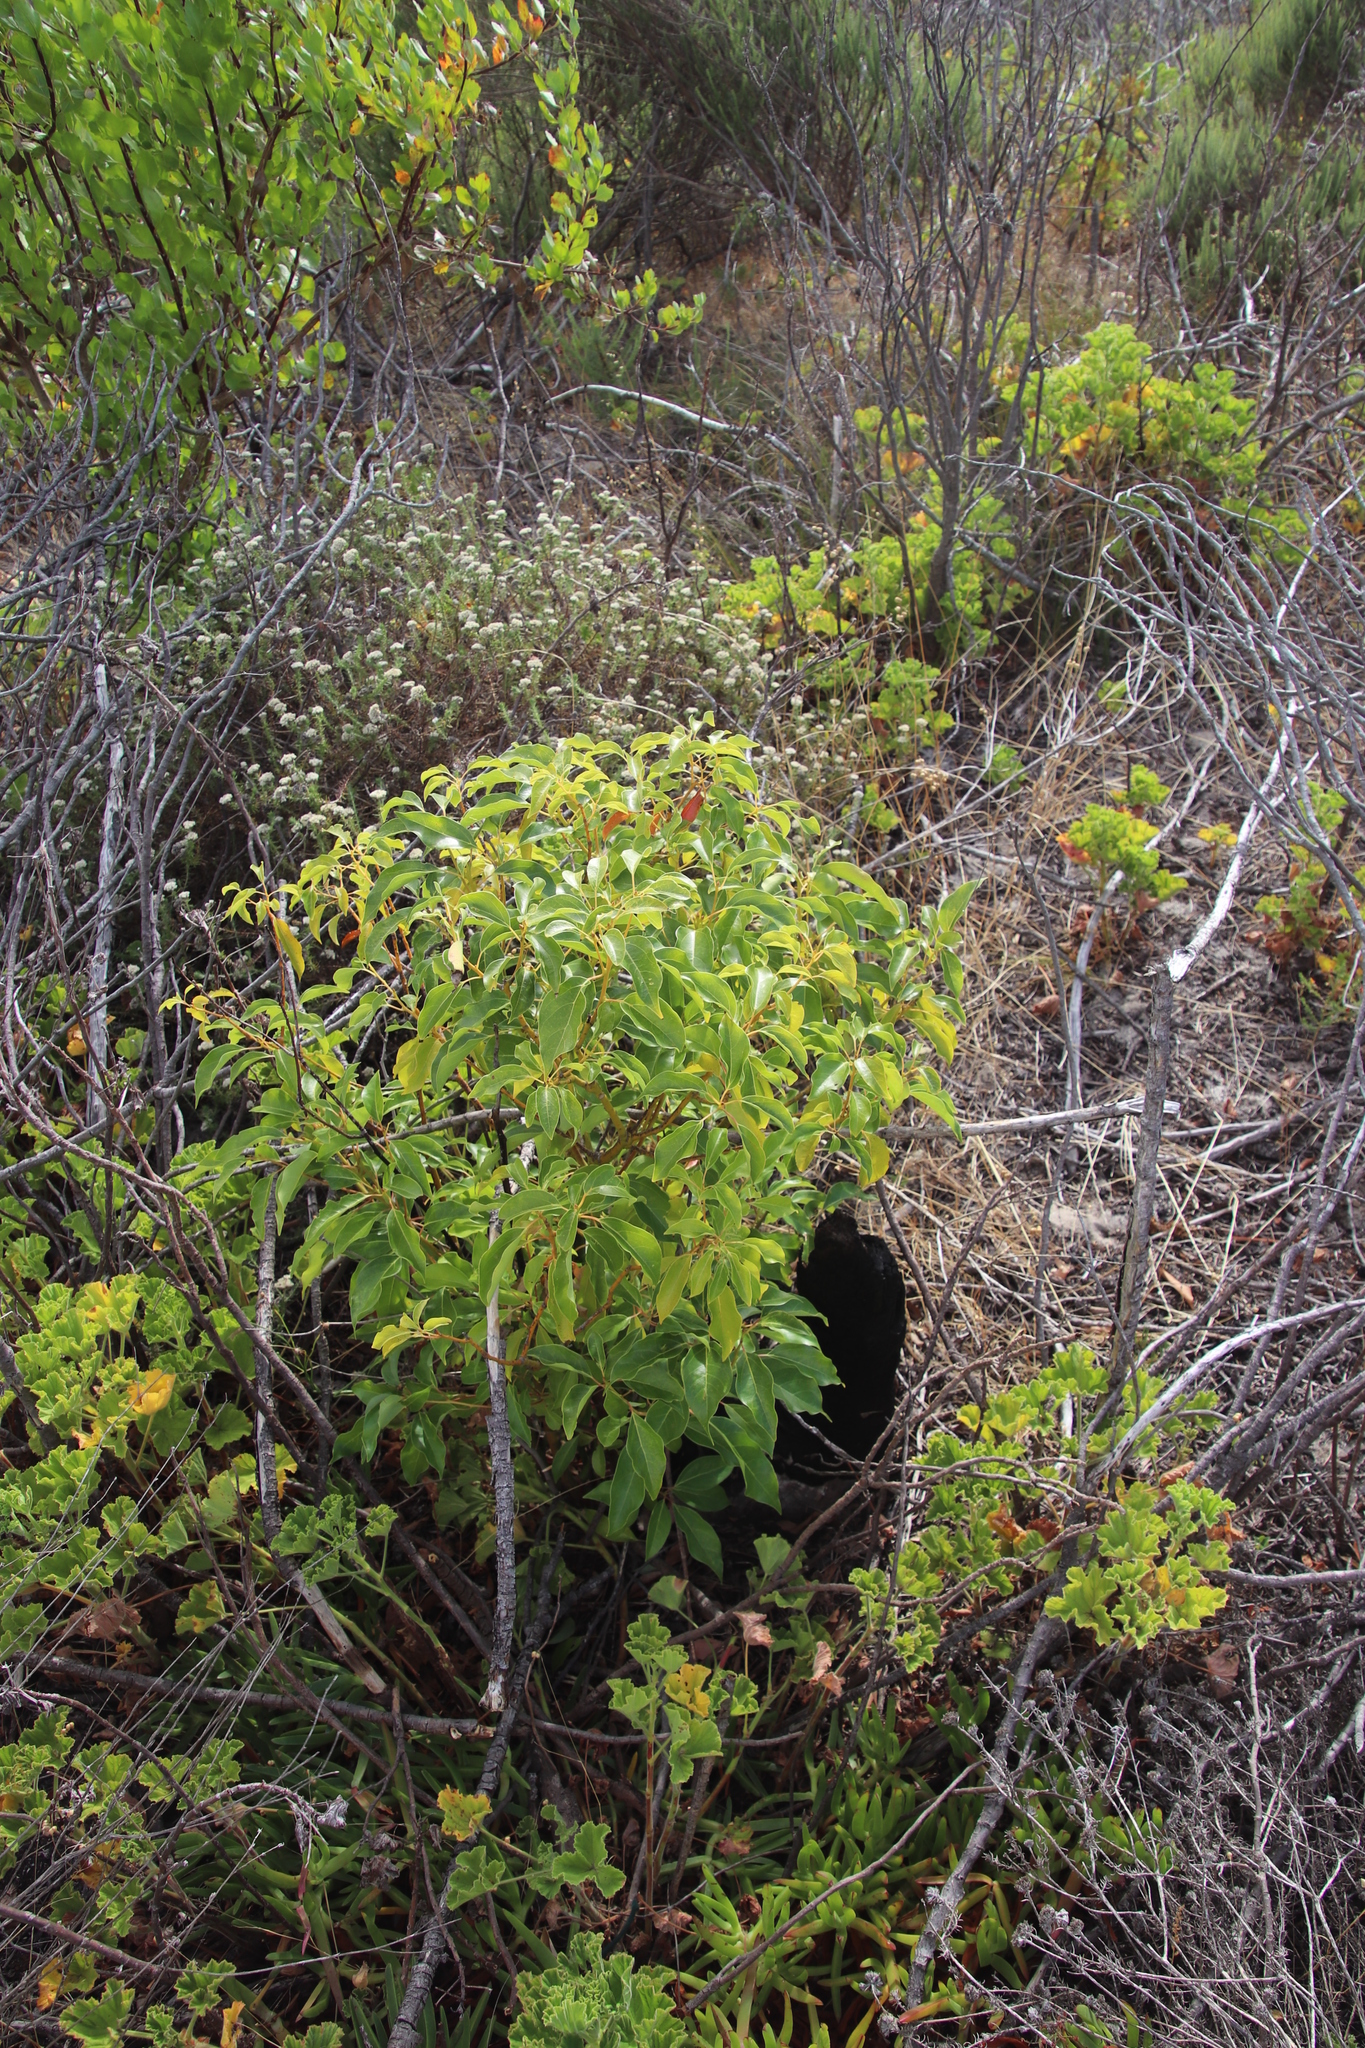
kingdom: Plantae
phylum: Tracheophyta
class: Magnoliopsida
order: Laurales
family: Lauraceae
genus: Cinnamomum
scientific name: Cinnamomum camphora
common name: Camphortree
